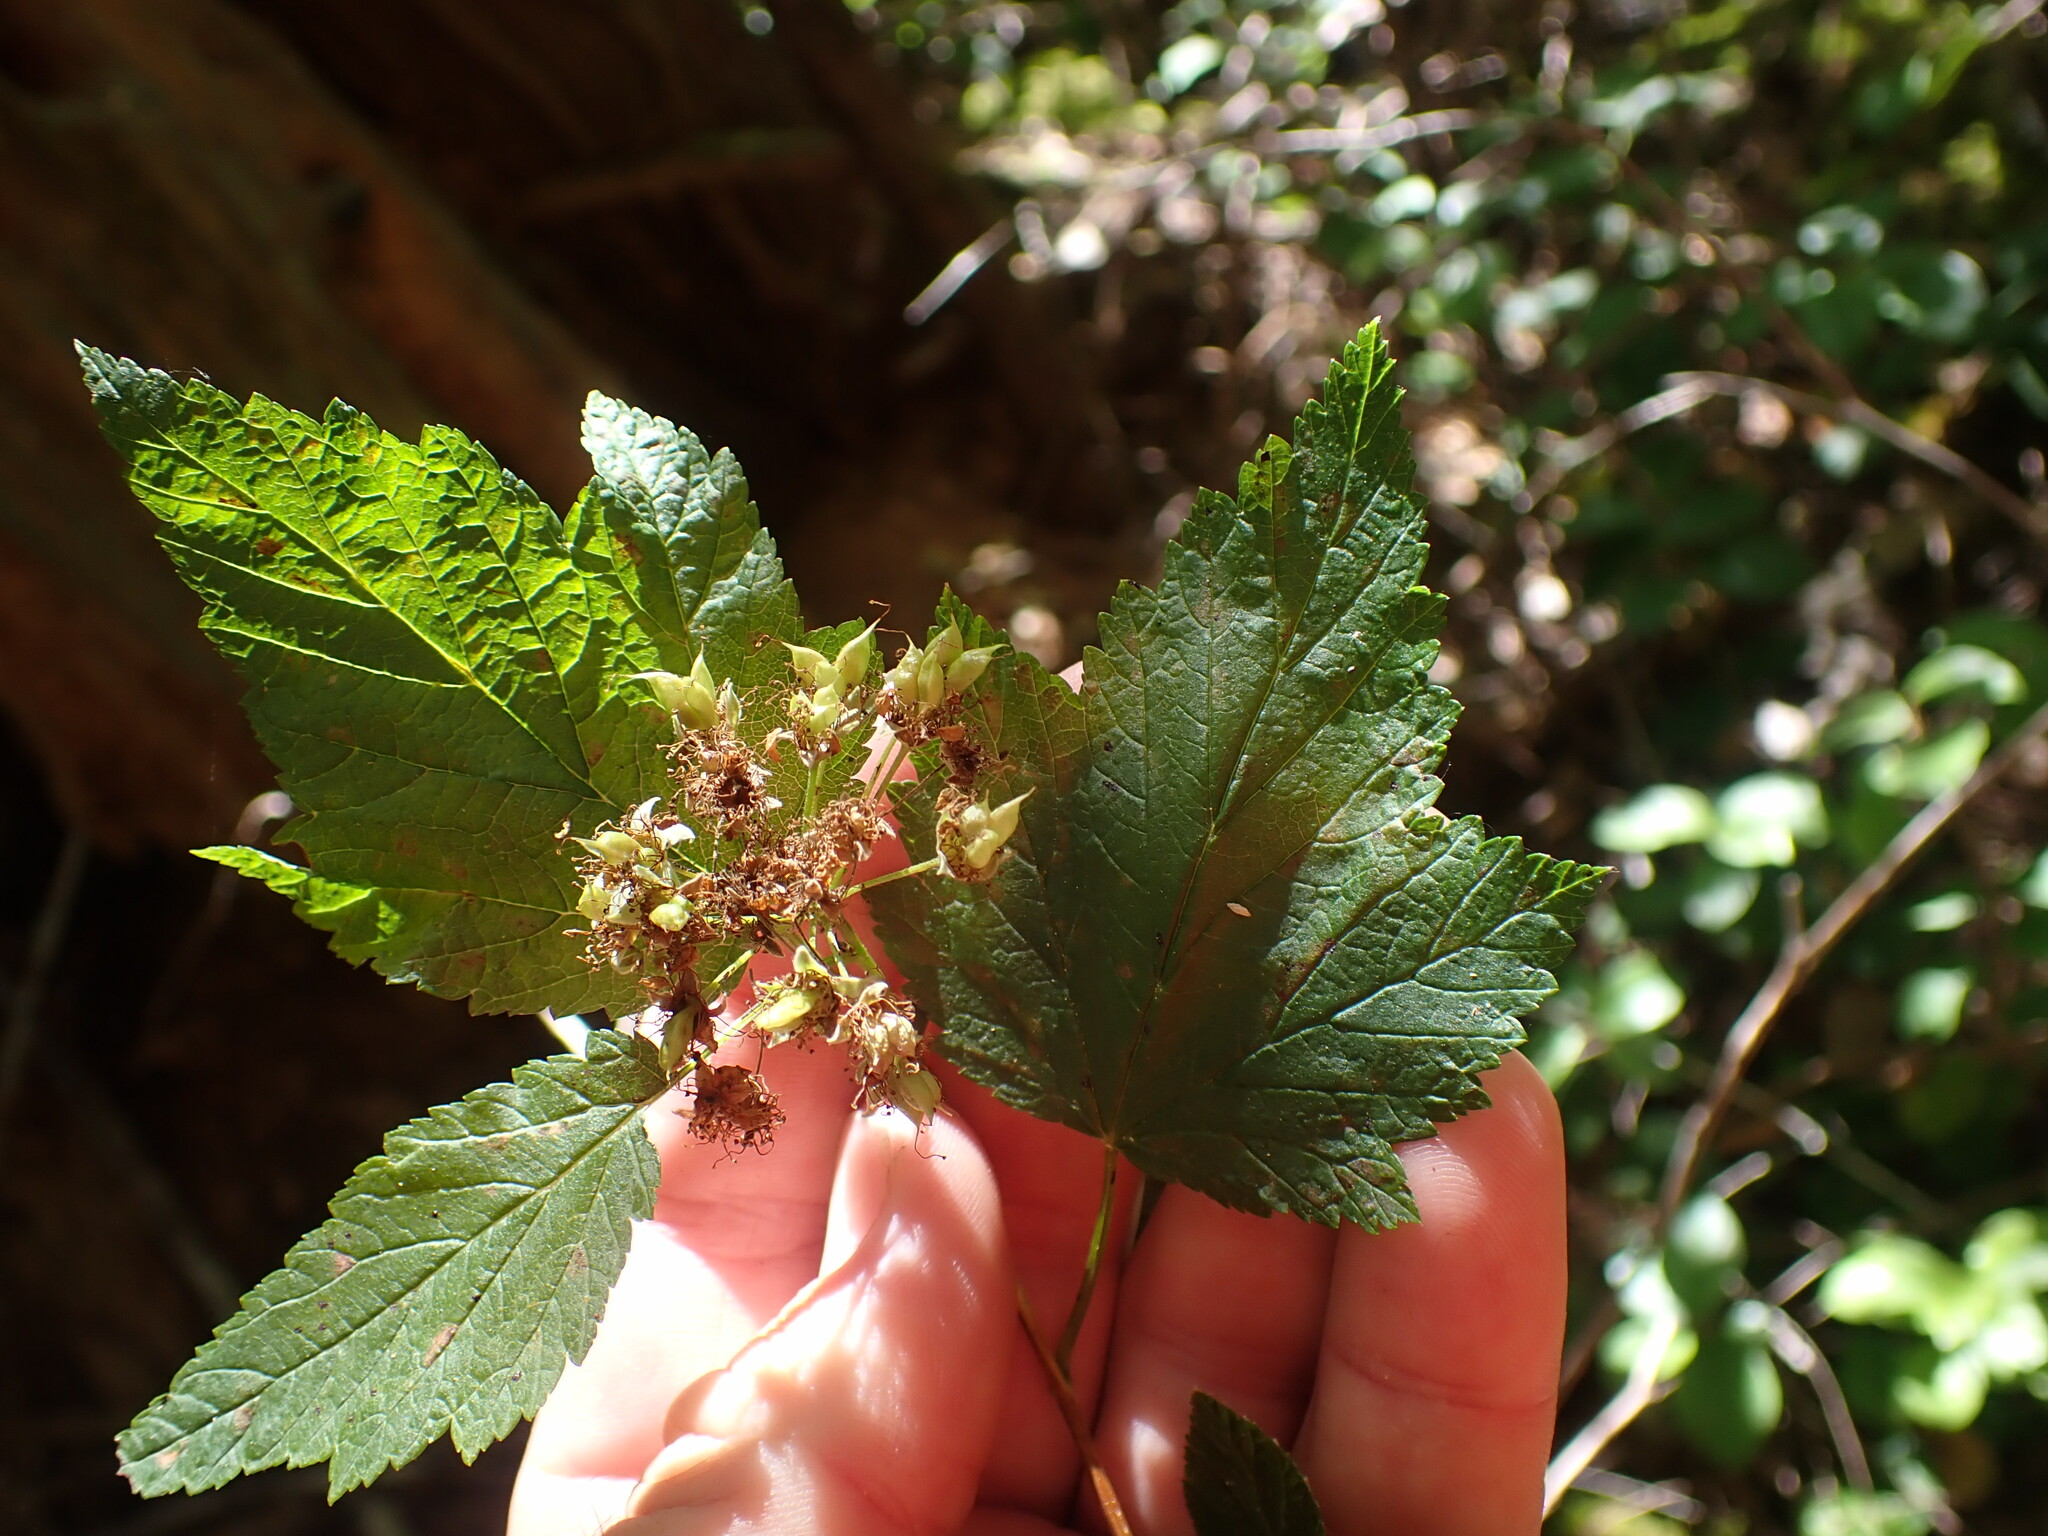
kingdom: Plantae
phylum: Tracheophyta
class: Magnoliopsida
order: Rosales
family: Rosaceae
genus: Physocarpus
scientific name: Physocarpus capitatus
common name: Pacific ninebark
